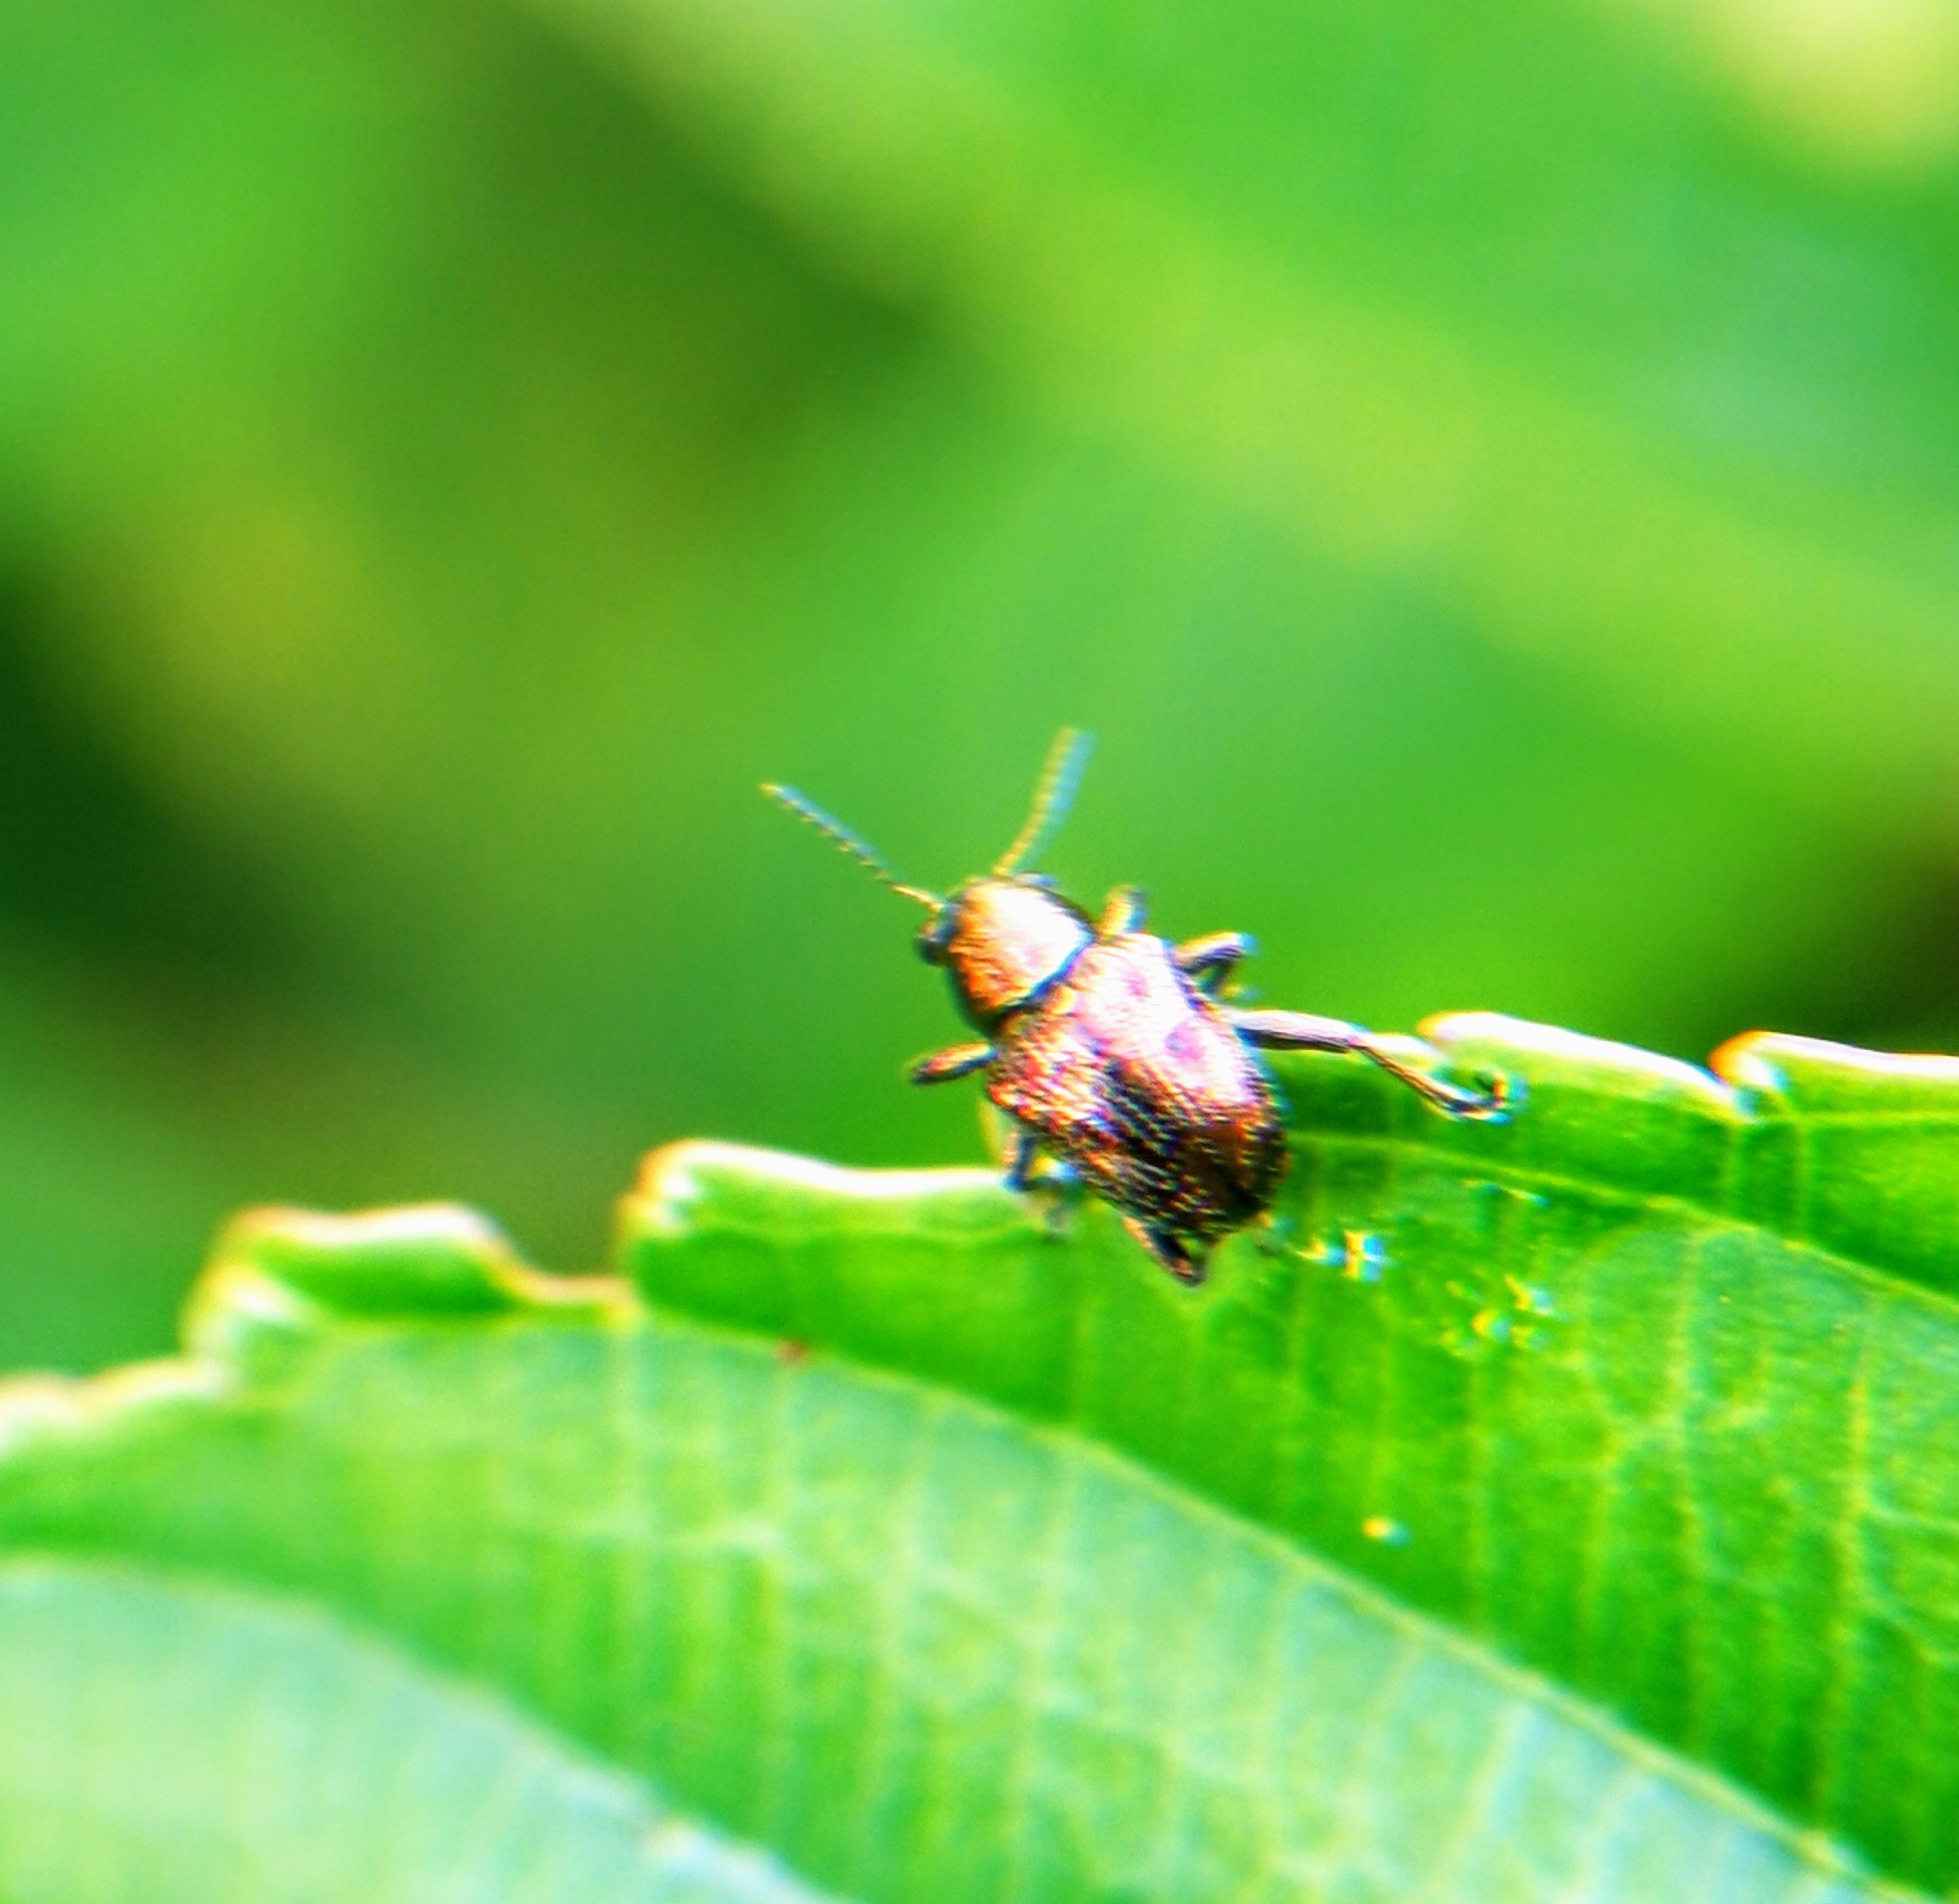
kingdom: Animalia
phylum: Arthropoda
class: Insecta
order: Coleoptera
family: Chrysomelidae
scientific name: Chrysomelidae
